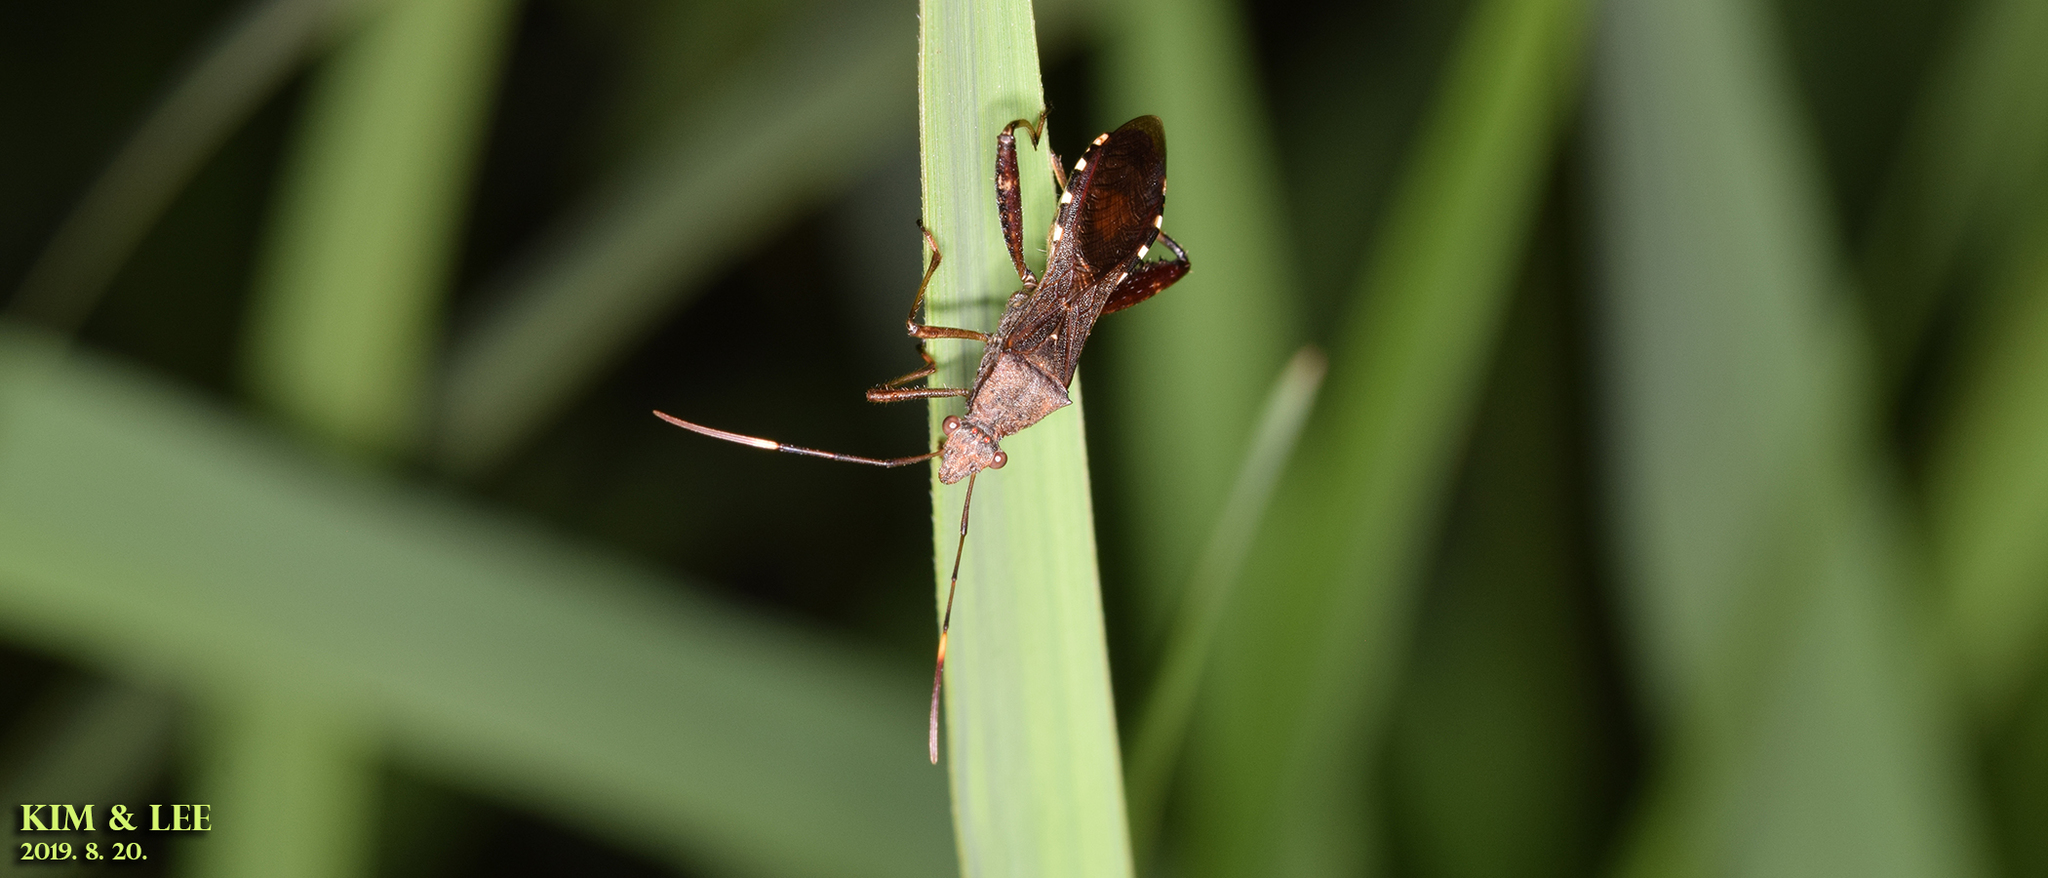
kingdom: Animalia
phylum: Arthropoda
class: Insecta
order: Hemiptera
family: Alydidae
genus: Riptortus
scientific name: Riptortus pedestris
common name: Bean bug
